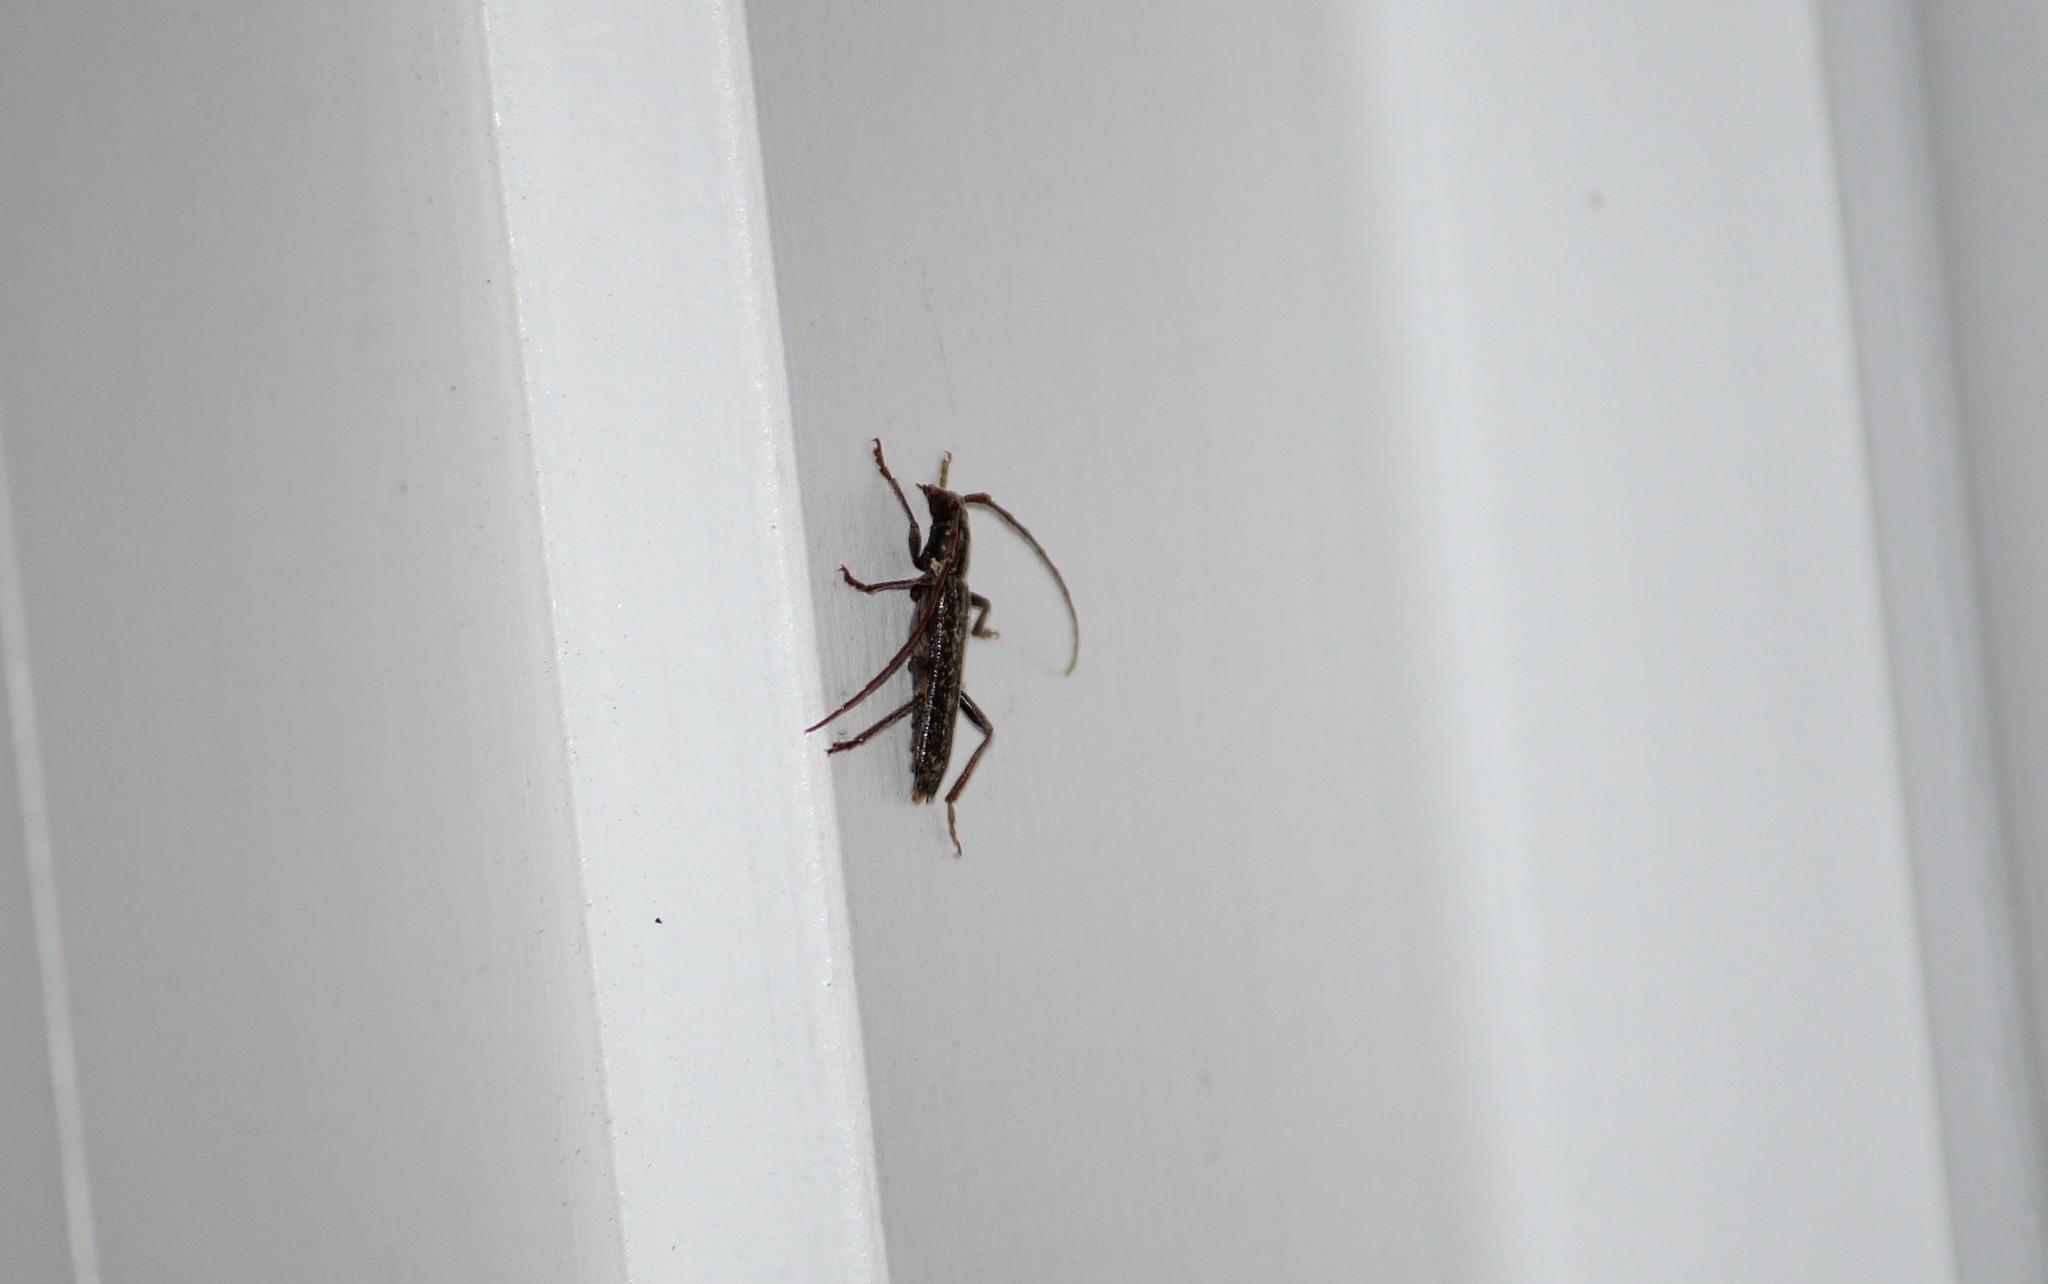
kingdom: Animalia
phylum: Arthropoda
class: Insecta
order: Coleoptera
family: Cerambycidae
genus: Anelaphus
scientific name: Anelaphus villosus
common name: Twig pruner
